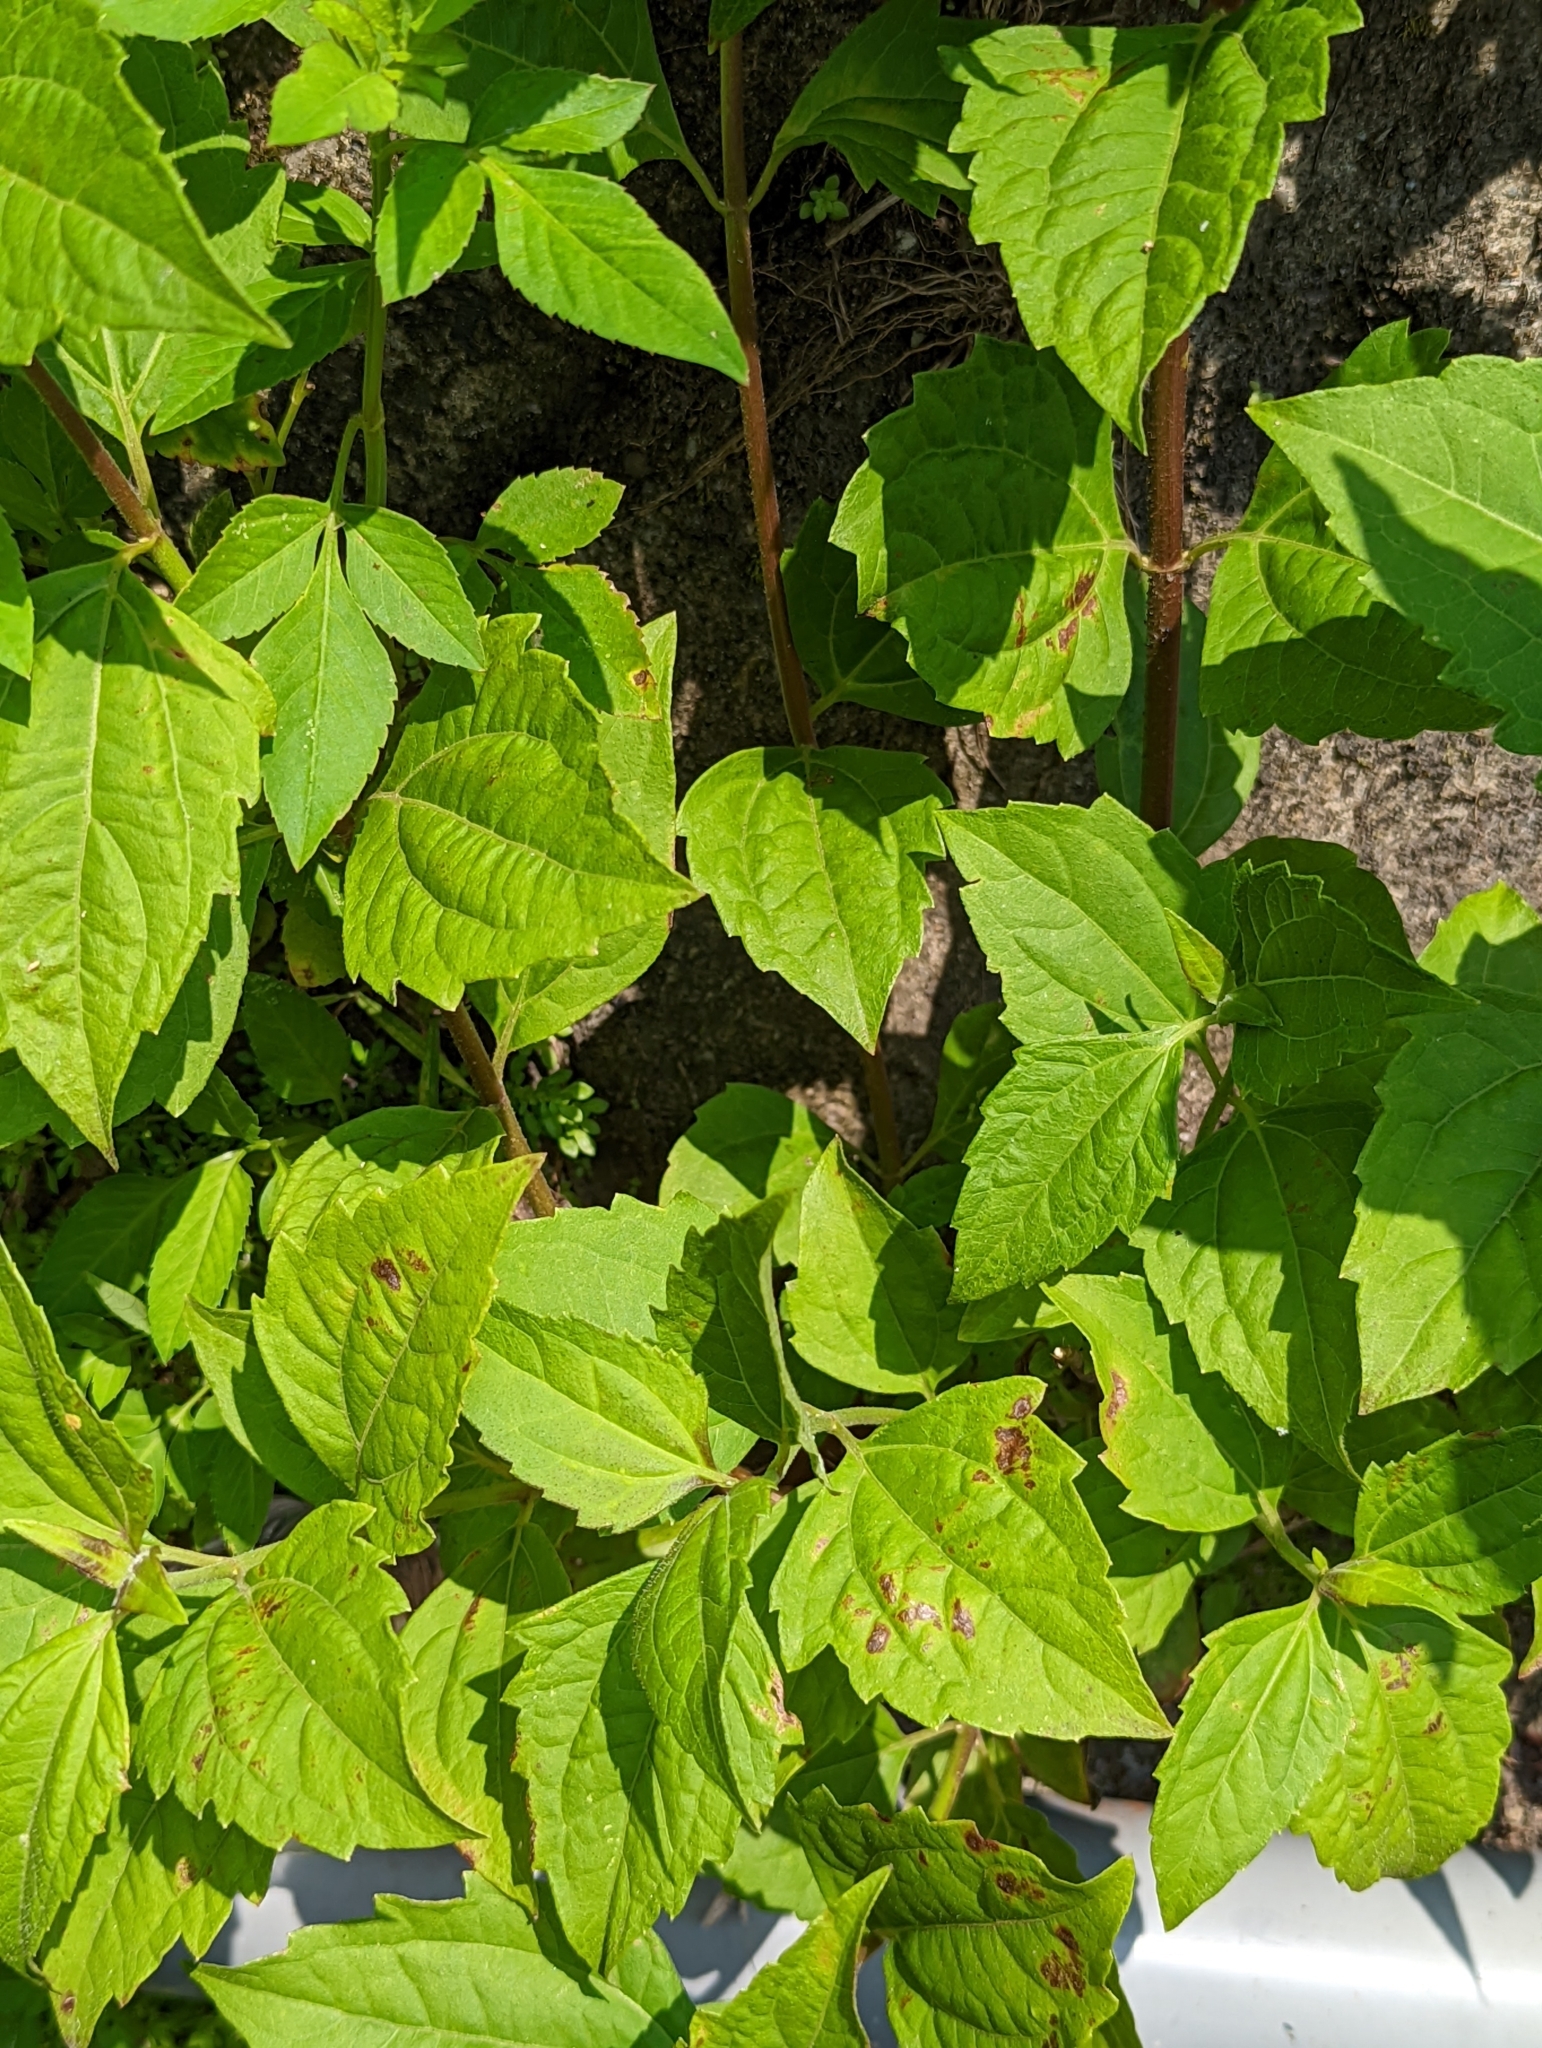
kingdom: Plantae
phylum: Tracheophyta
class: Magnoliopsida
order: Asterales
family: Asteraceae
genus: Chromolaena
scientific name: Chromolaena odorata
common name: Siamweed
